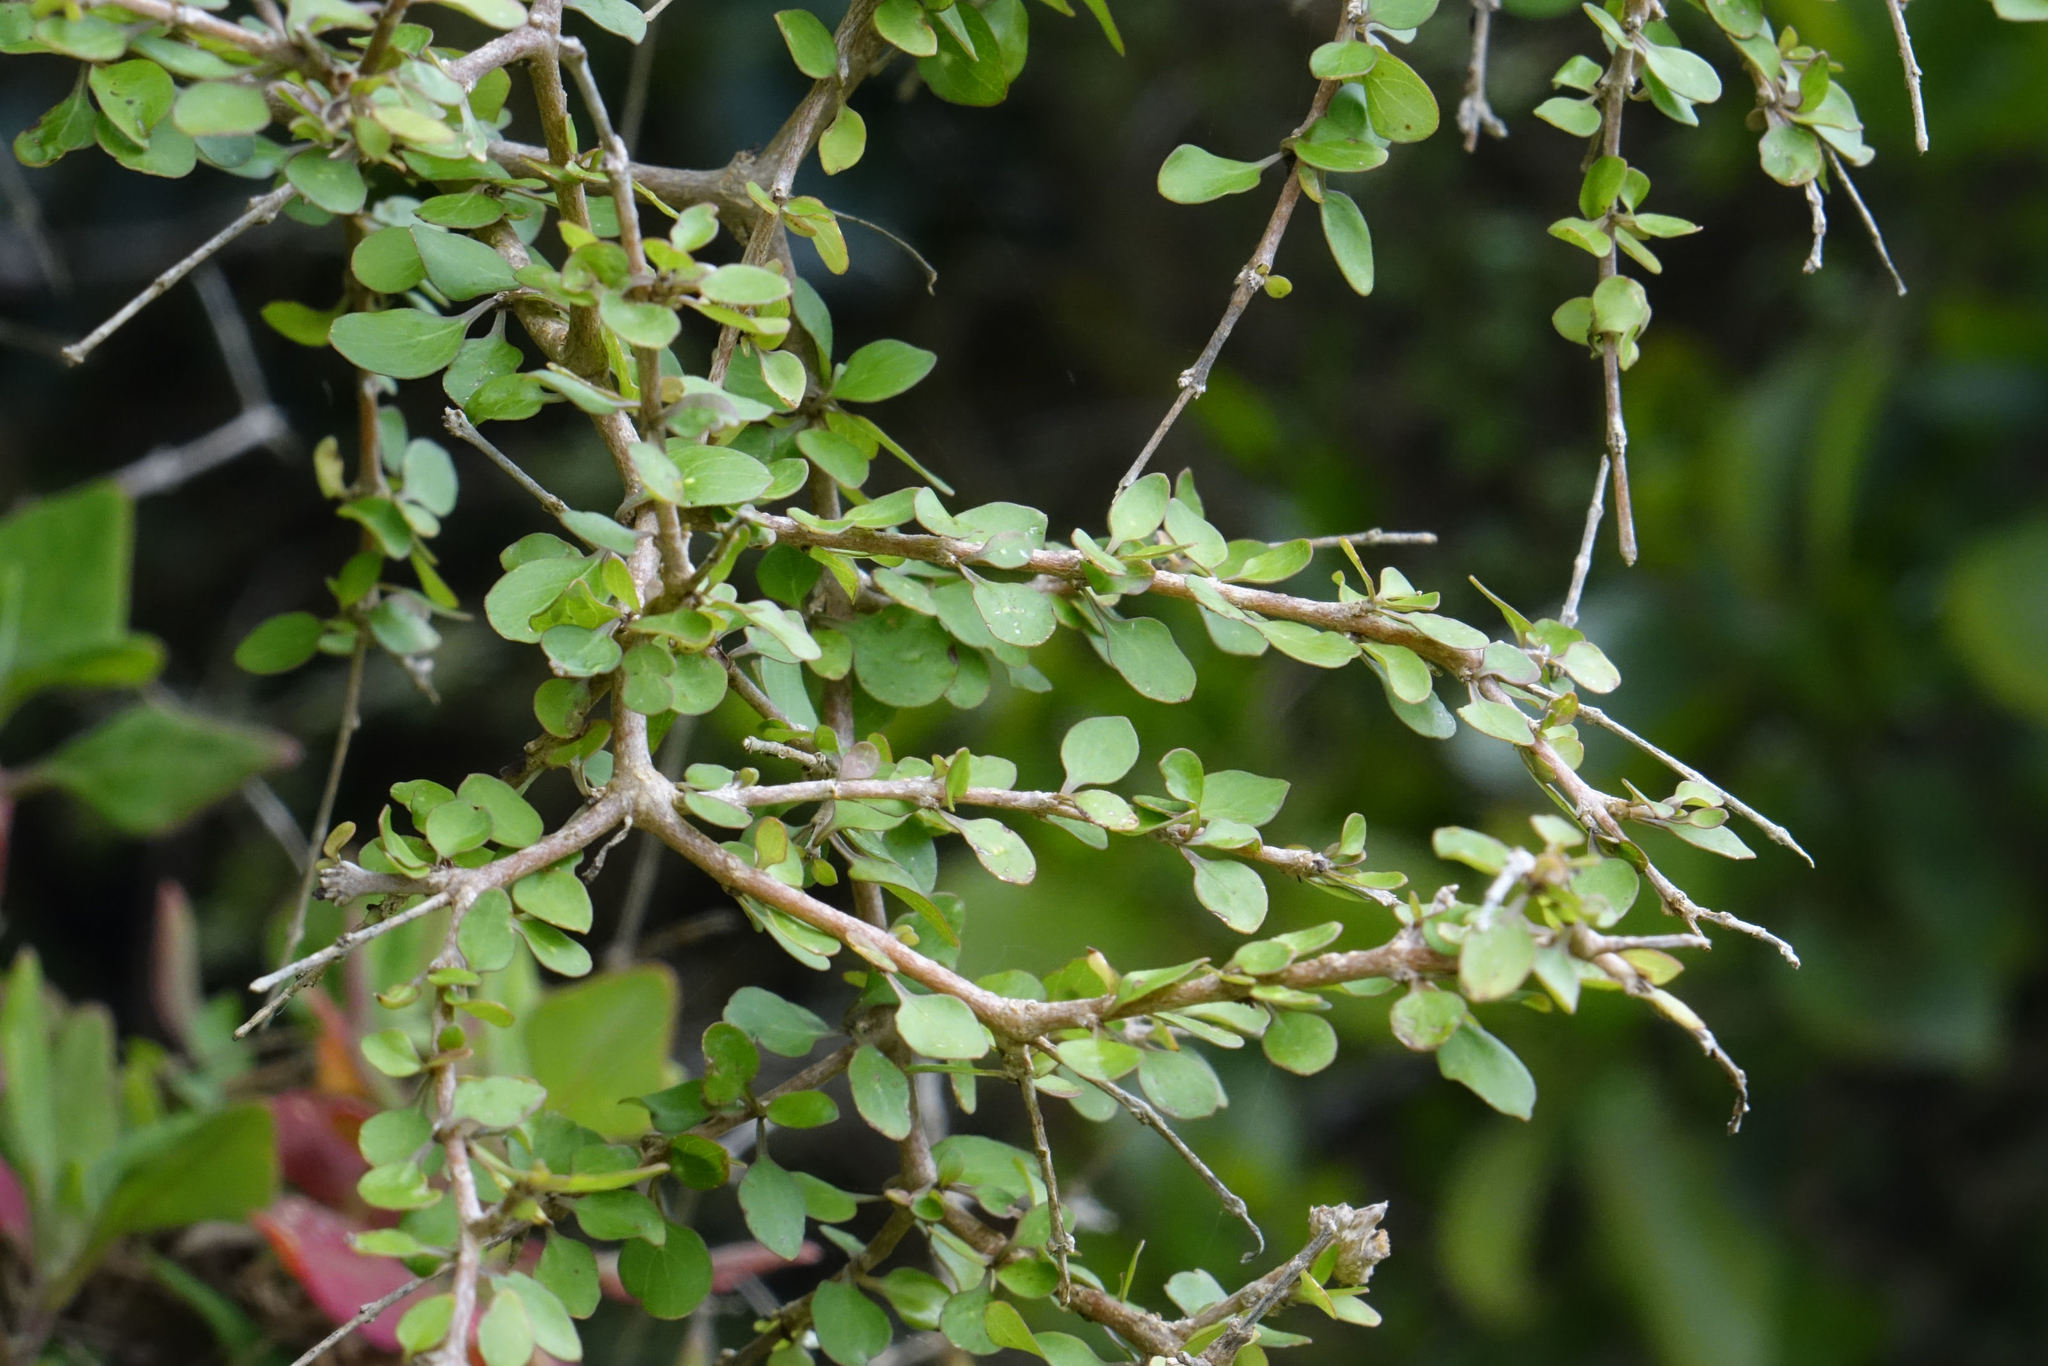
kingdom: Plantae
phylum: Tracheophyta
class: Magnoliopsida
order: Gentianales
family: Rubiaceae
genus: Coprosma
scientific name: Coprosma virescens
